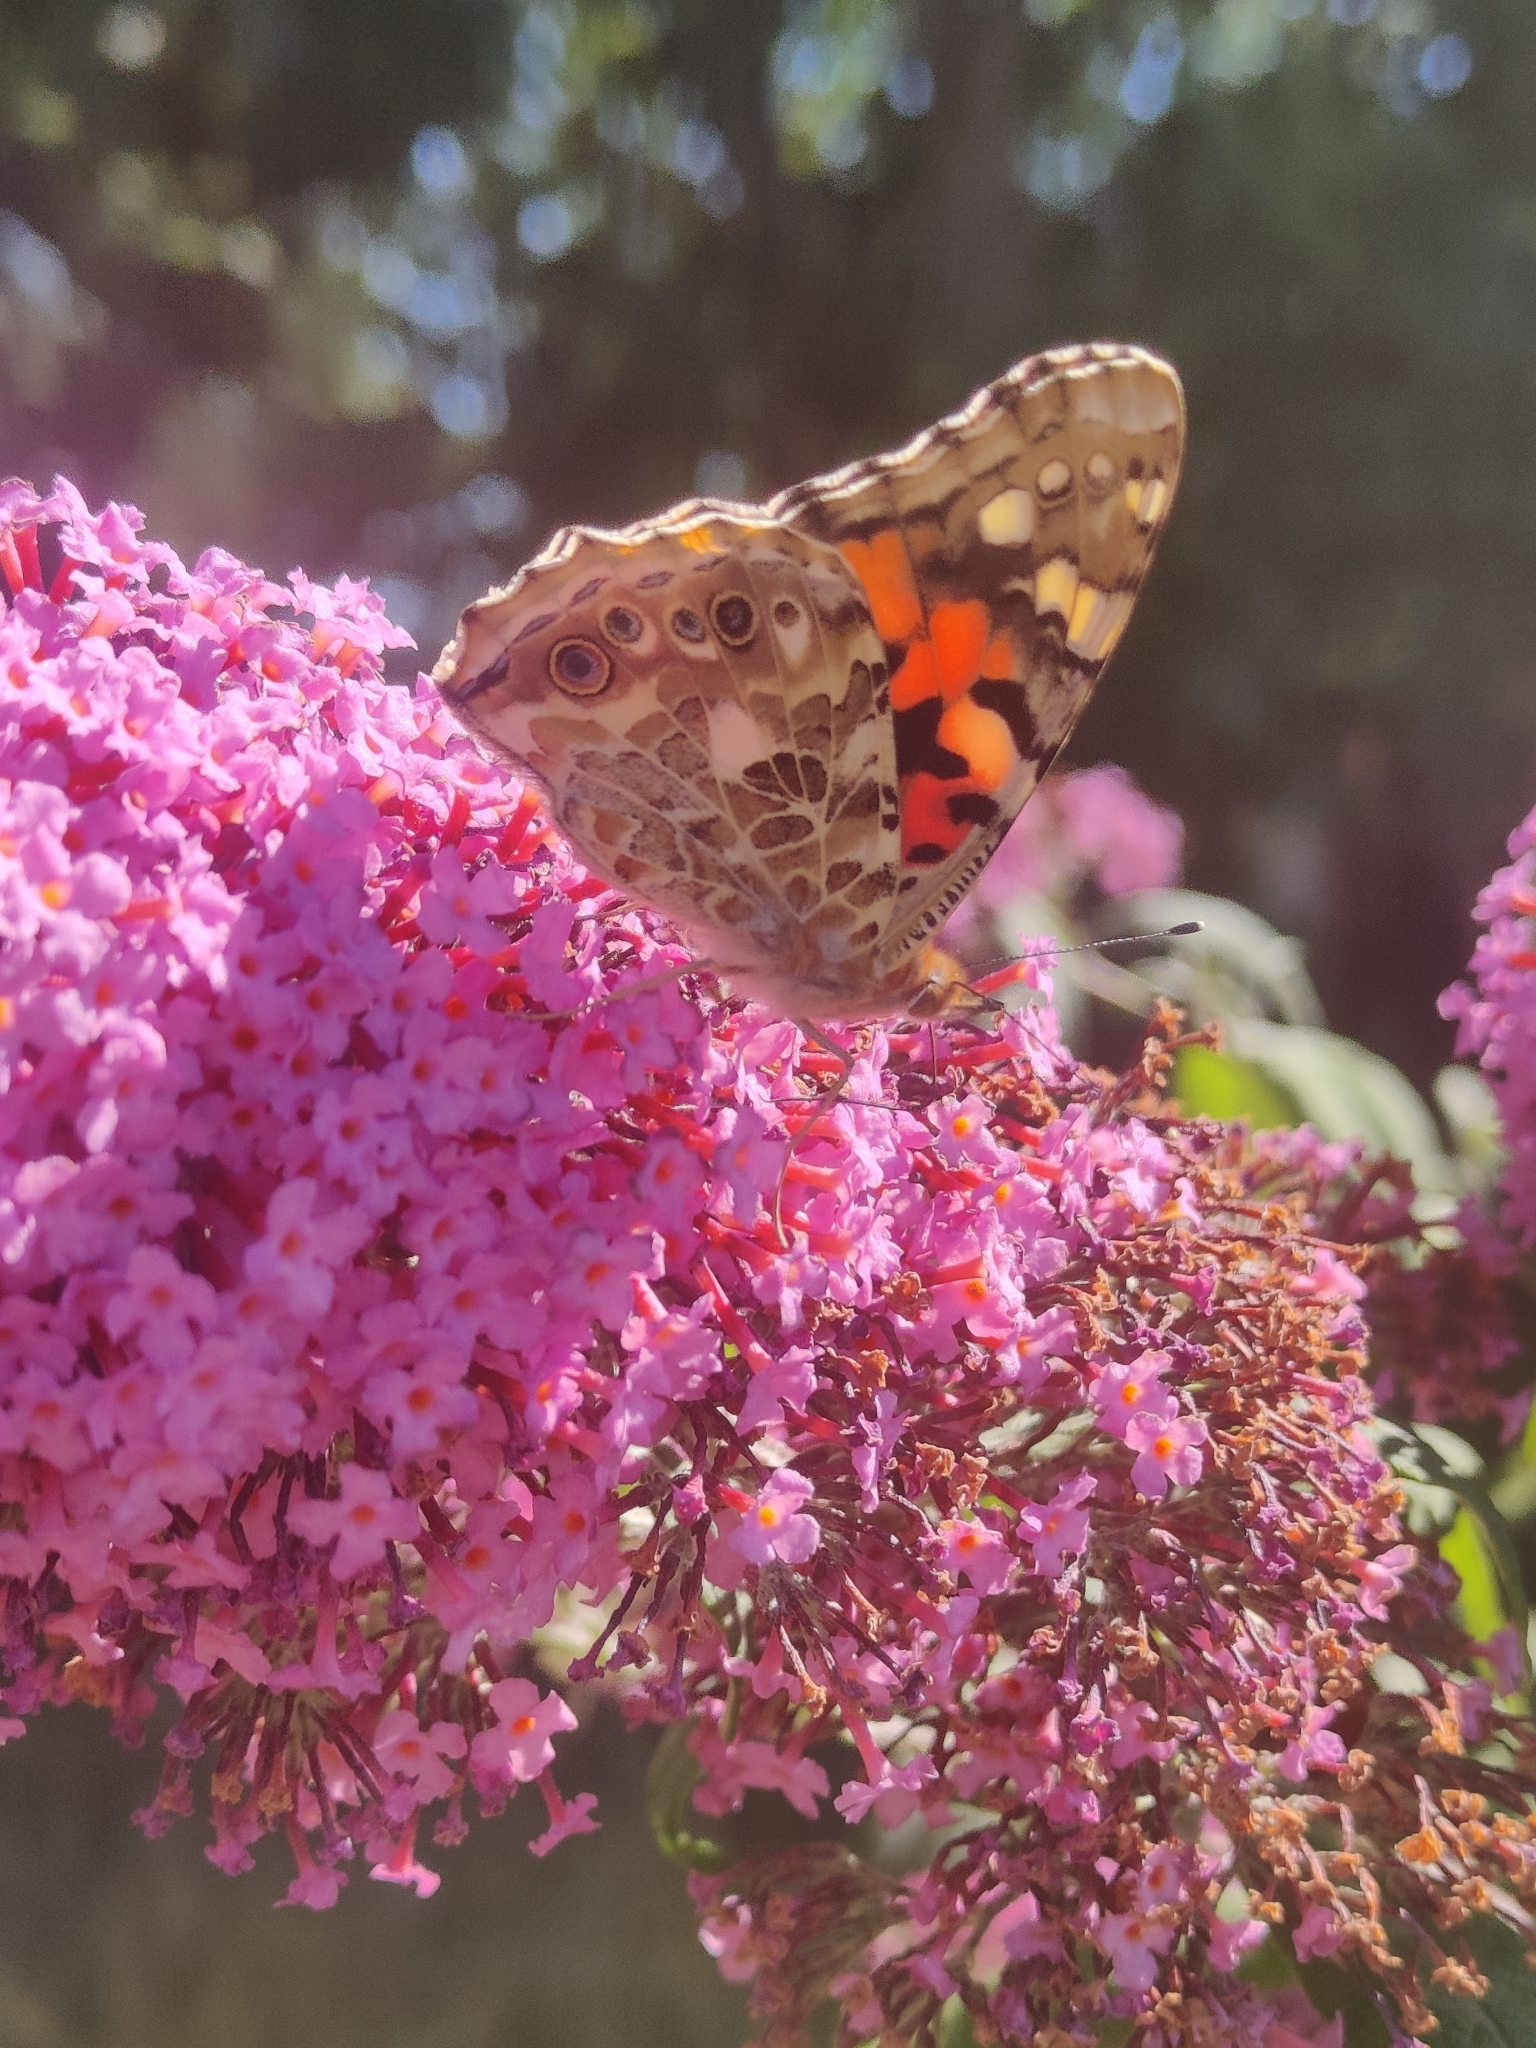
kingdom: Animalia
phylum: Arthropoda
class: Insecta
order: Lepidoptera
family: Nymphalidae
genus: Vanessa
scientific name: Vanessa cardui
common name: Painted lady
